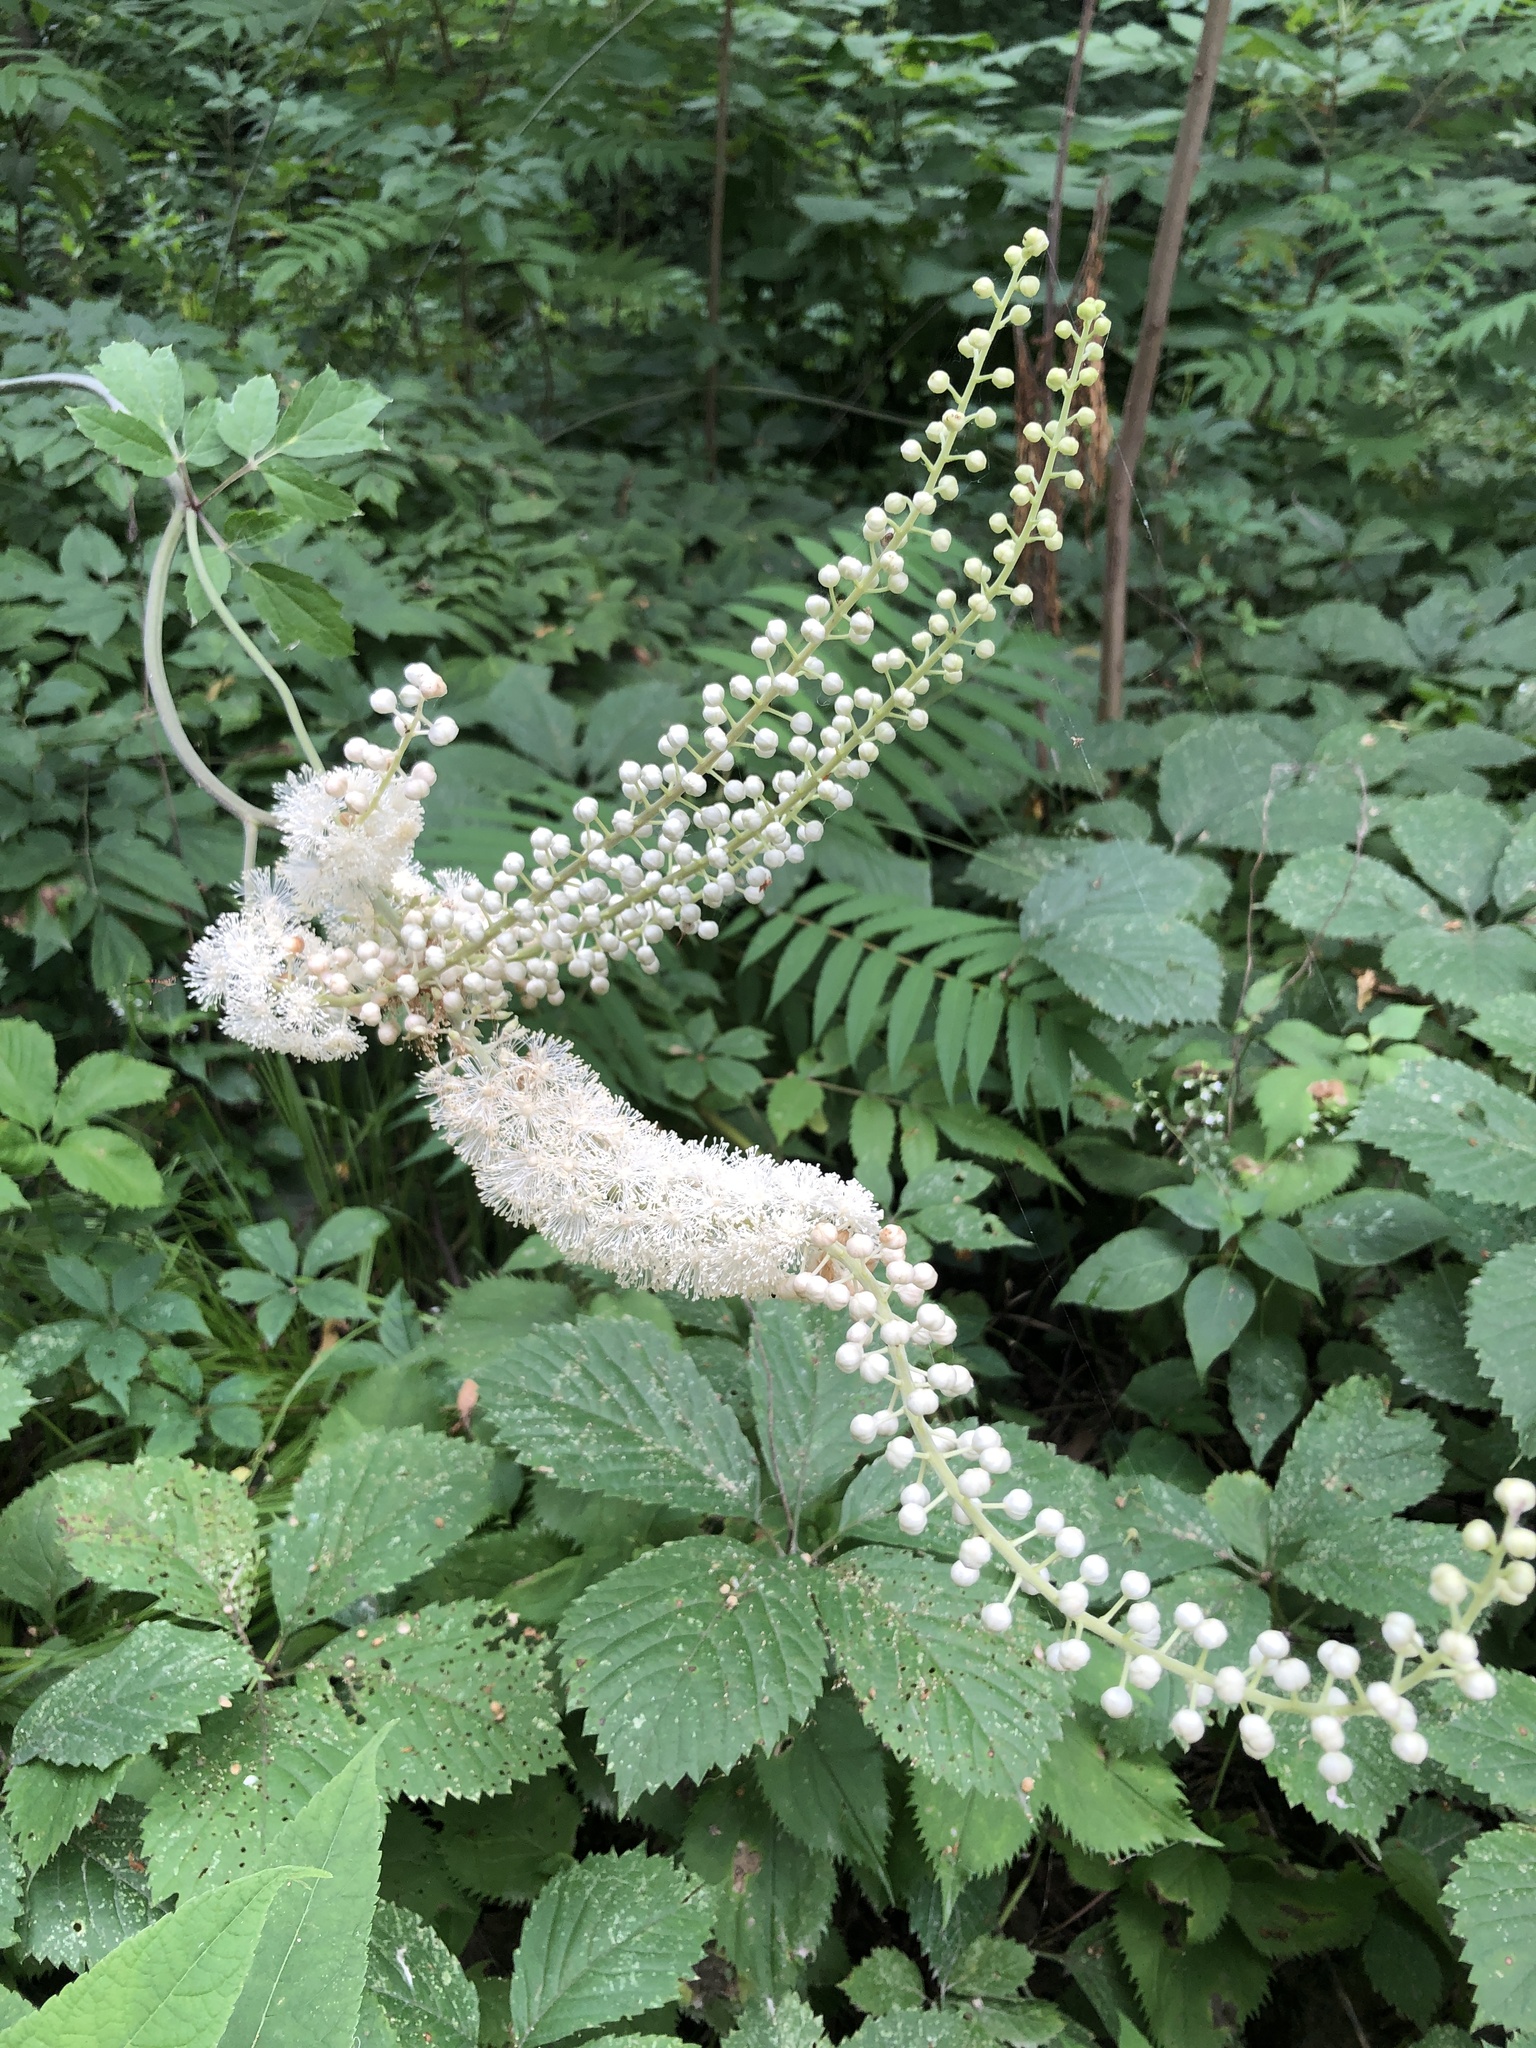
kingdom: Plantae
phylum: Tracheophyta
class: Magnoliopsida
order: Ranunculales
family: Ranunculaceae
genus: Actaea
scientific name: Actaea racemosa
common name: Black cohosh
